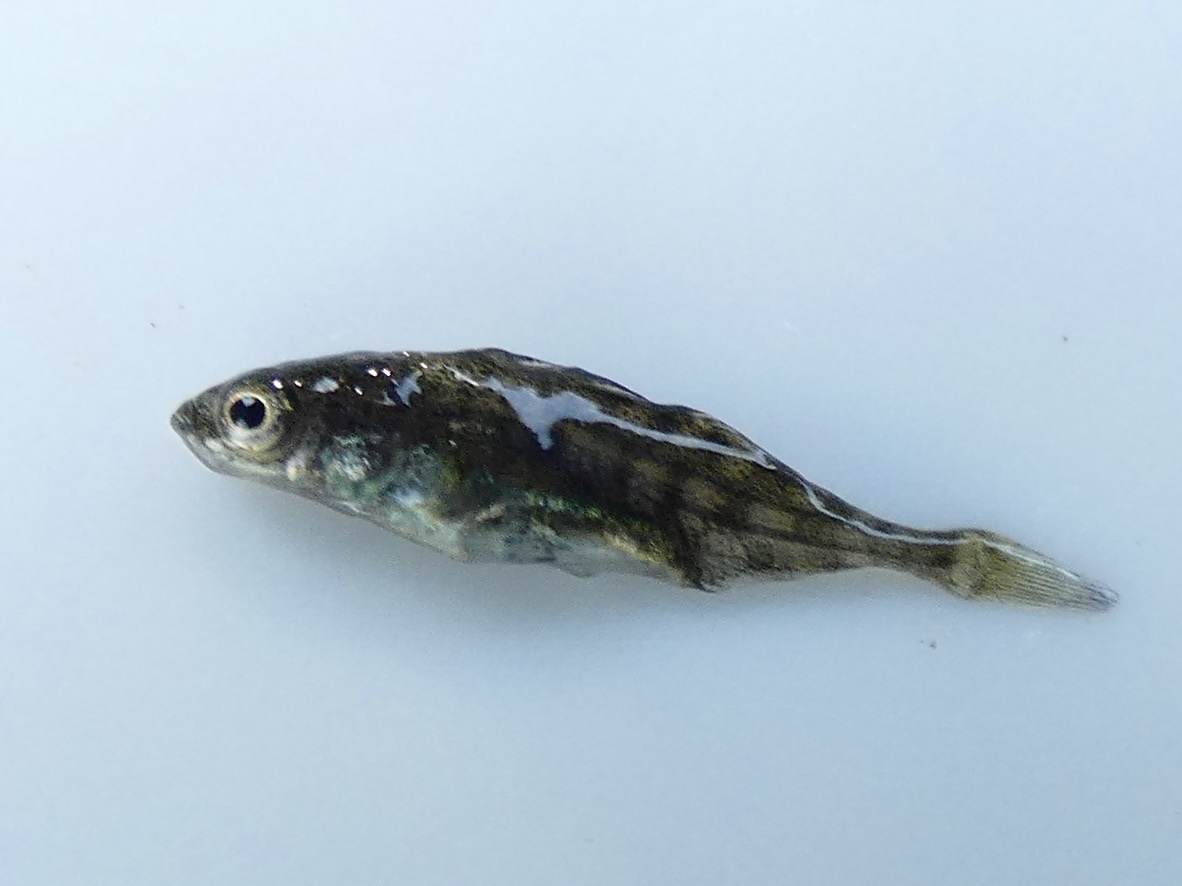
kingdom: Animalia
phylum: Chordata
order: Gasterosteiformes
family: Gasterosteidae
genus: Gasterosteus
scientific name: Gasterosteus aculeatus
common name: Three-spined stickleback
